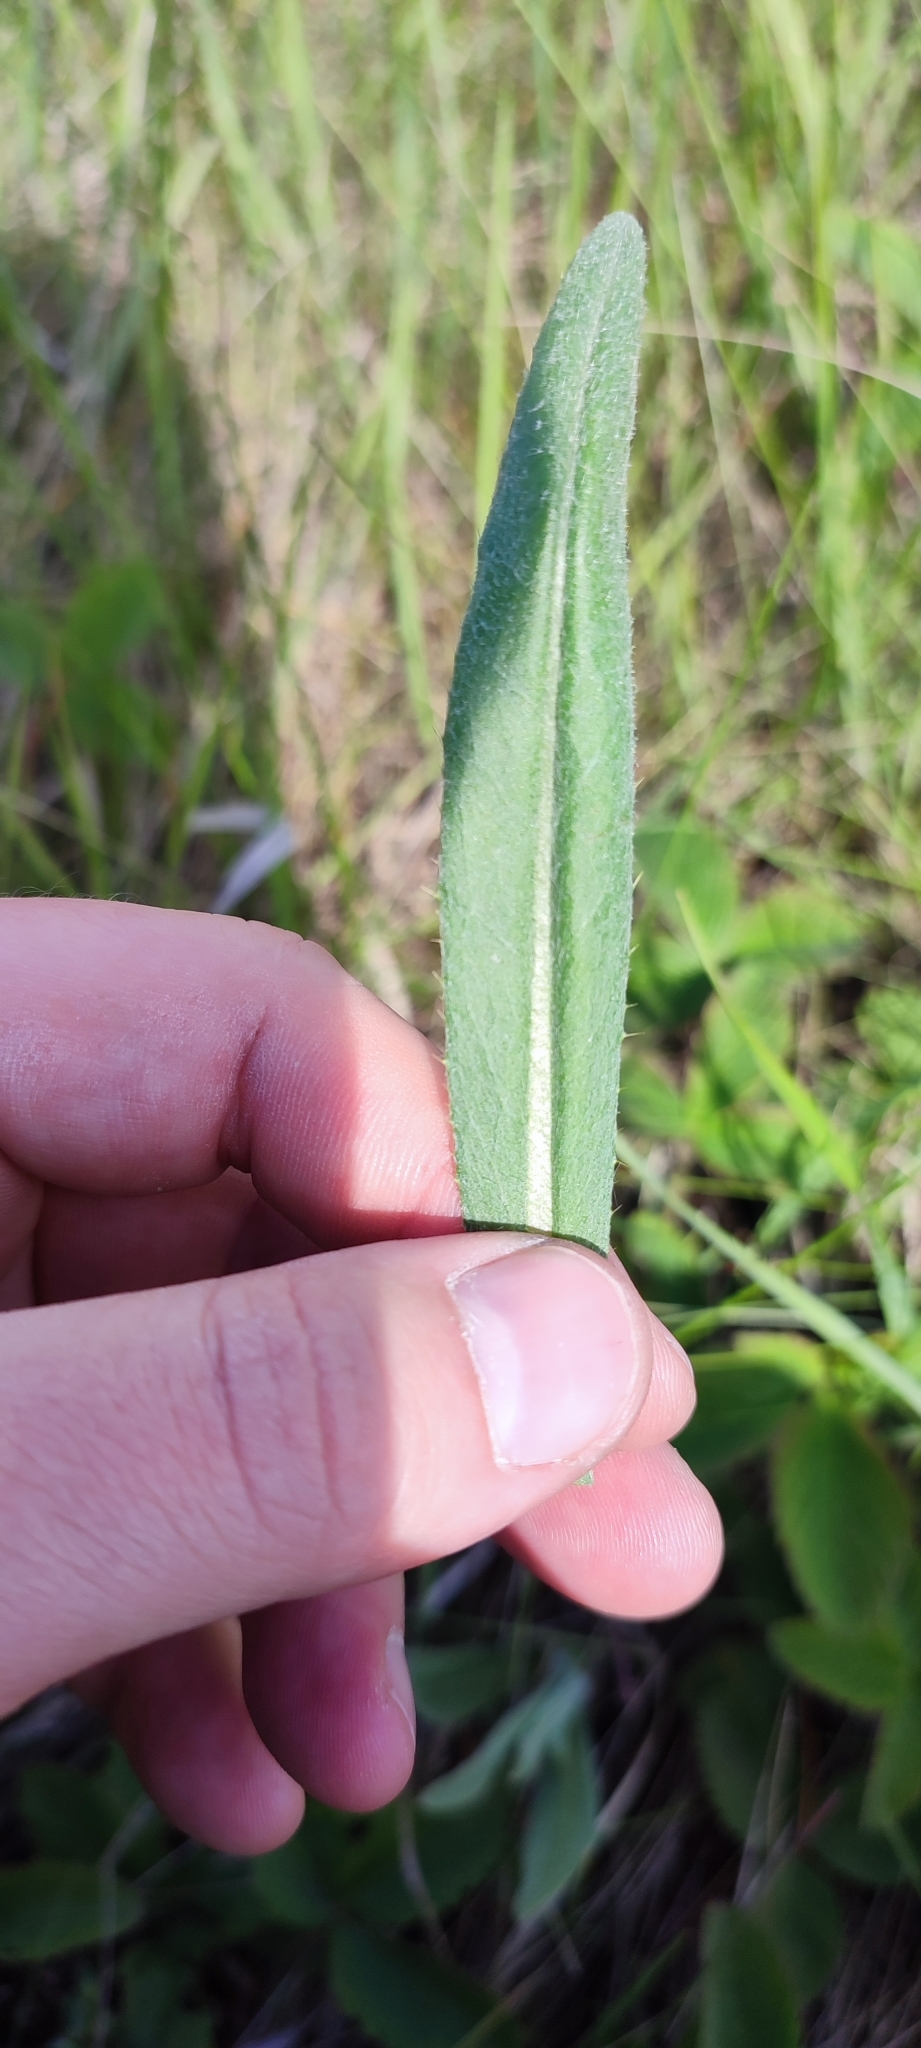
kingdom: Plantae
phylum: Tracheophyta
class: Magnoliopsida
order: Asterales
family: Asteraceae
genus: Cirsium
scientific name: Cirsium arvense
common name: Creeping thistle
